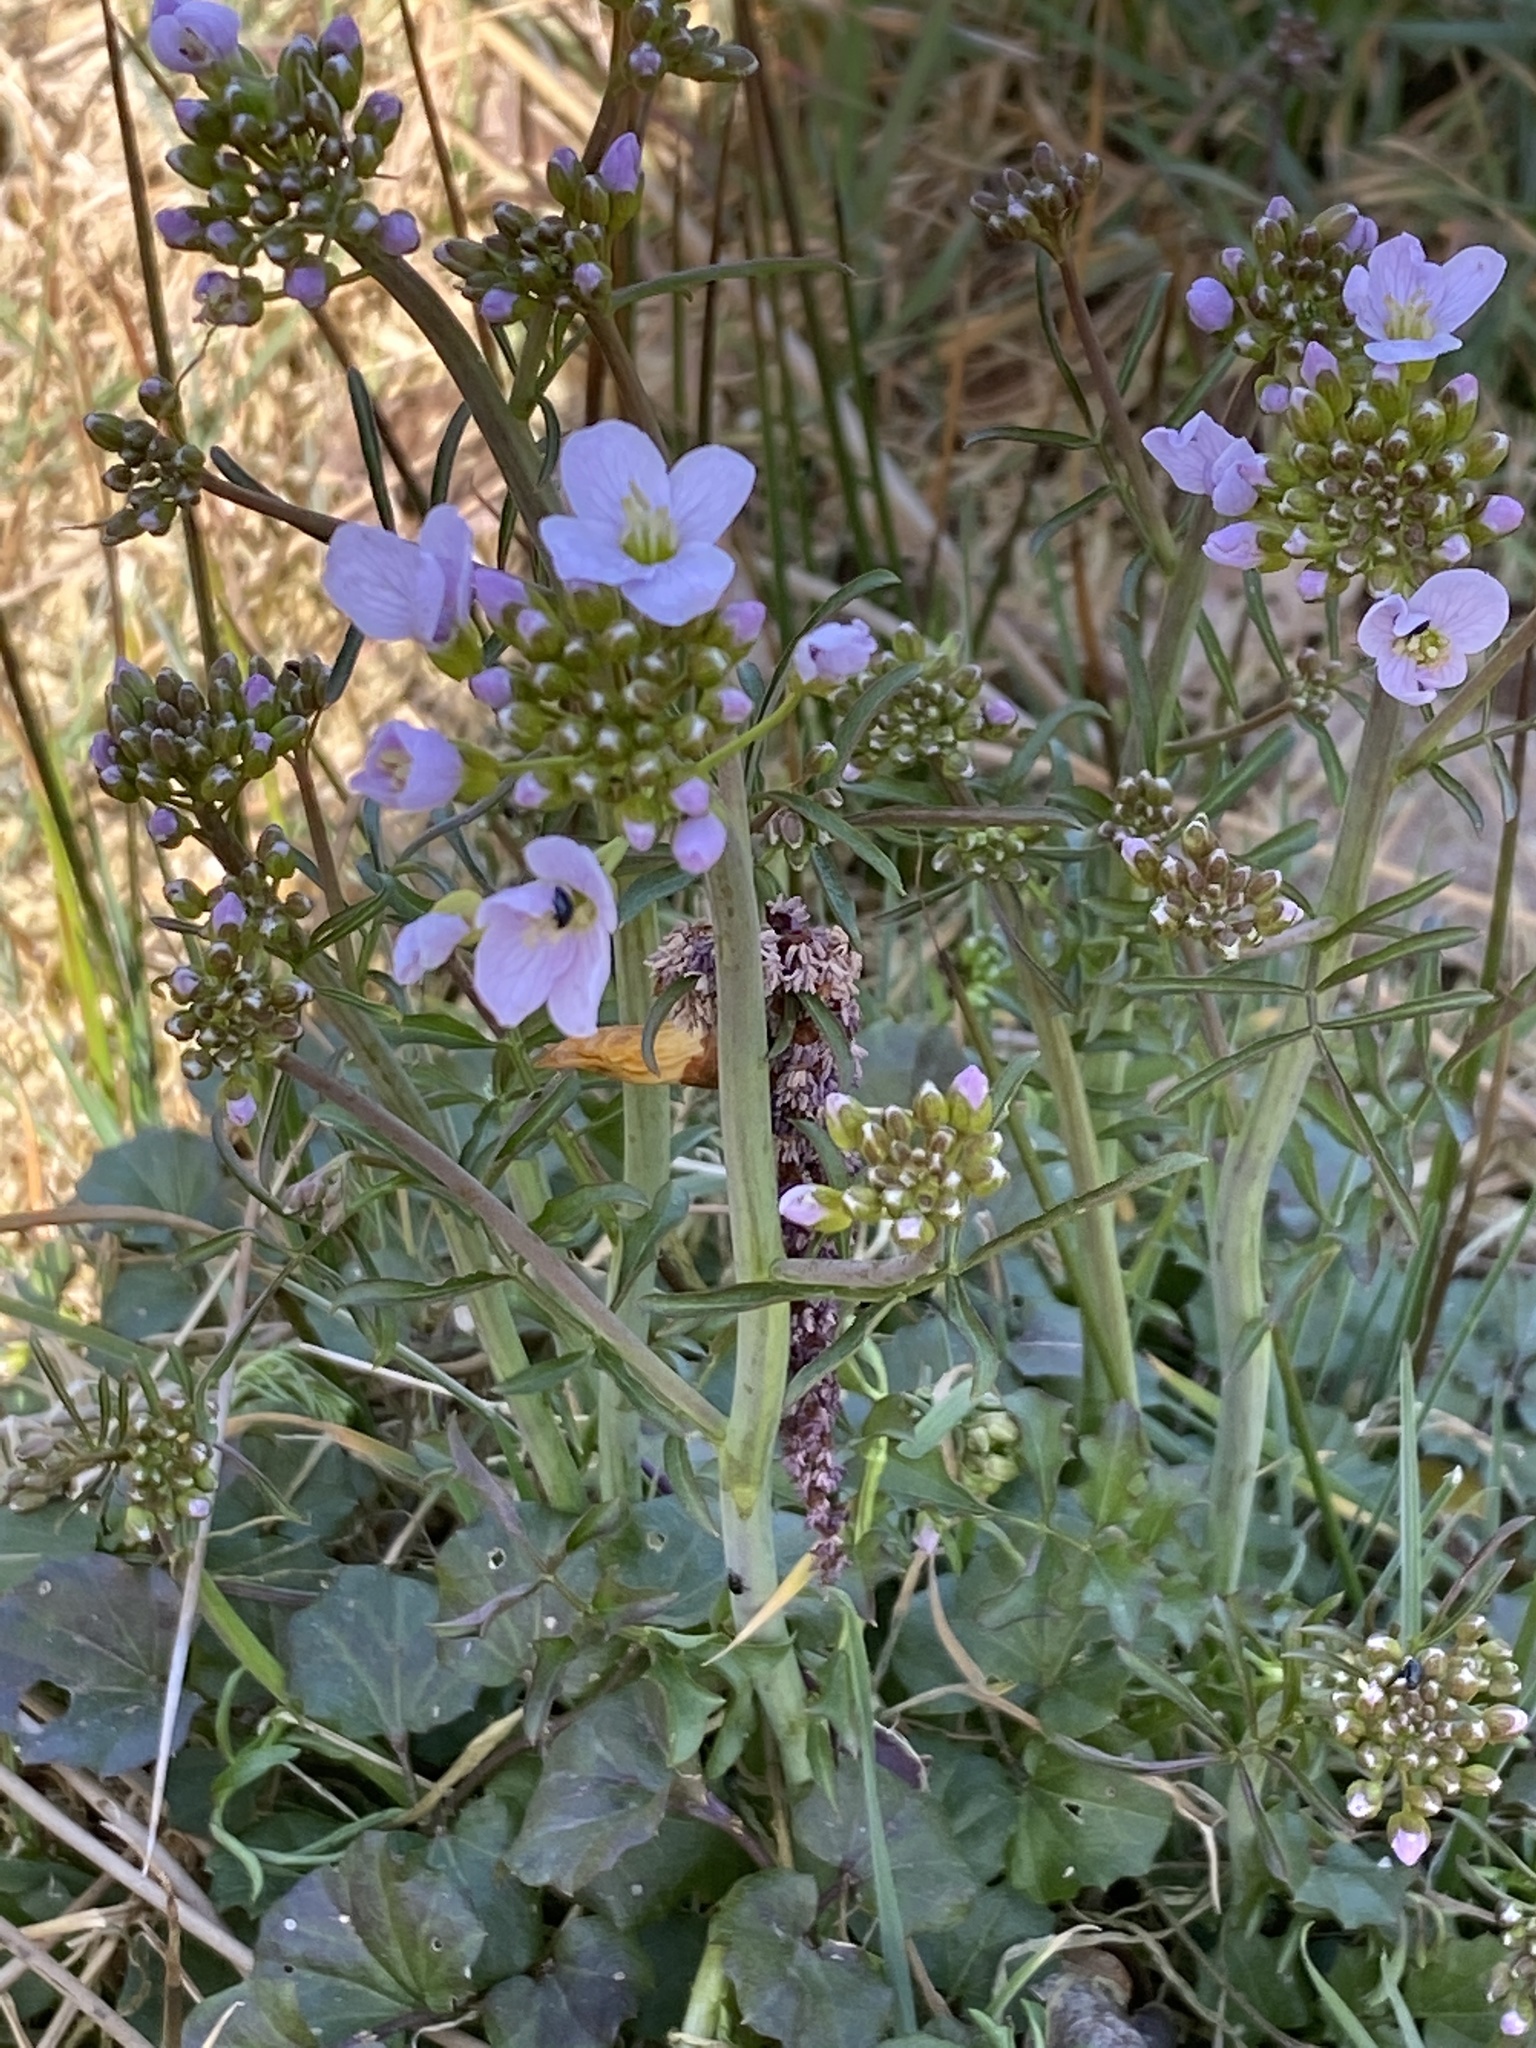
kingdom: Plantae
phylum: Tracheophyta
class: Magnoliopsida
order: Brassicales
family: Brassicaceae
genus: Cardamine
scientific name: Cardamine pratensis
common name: Cuckoo flower
